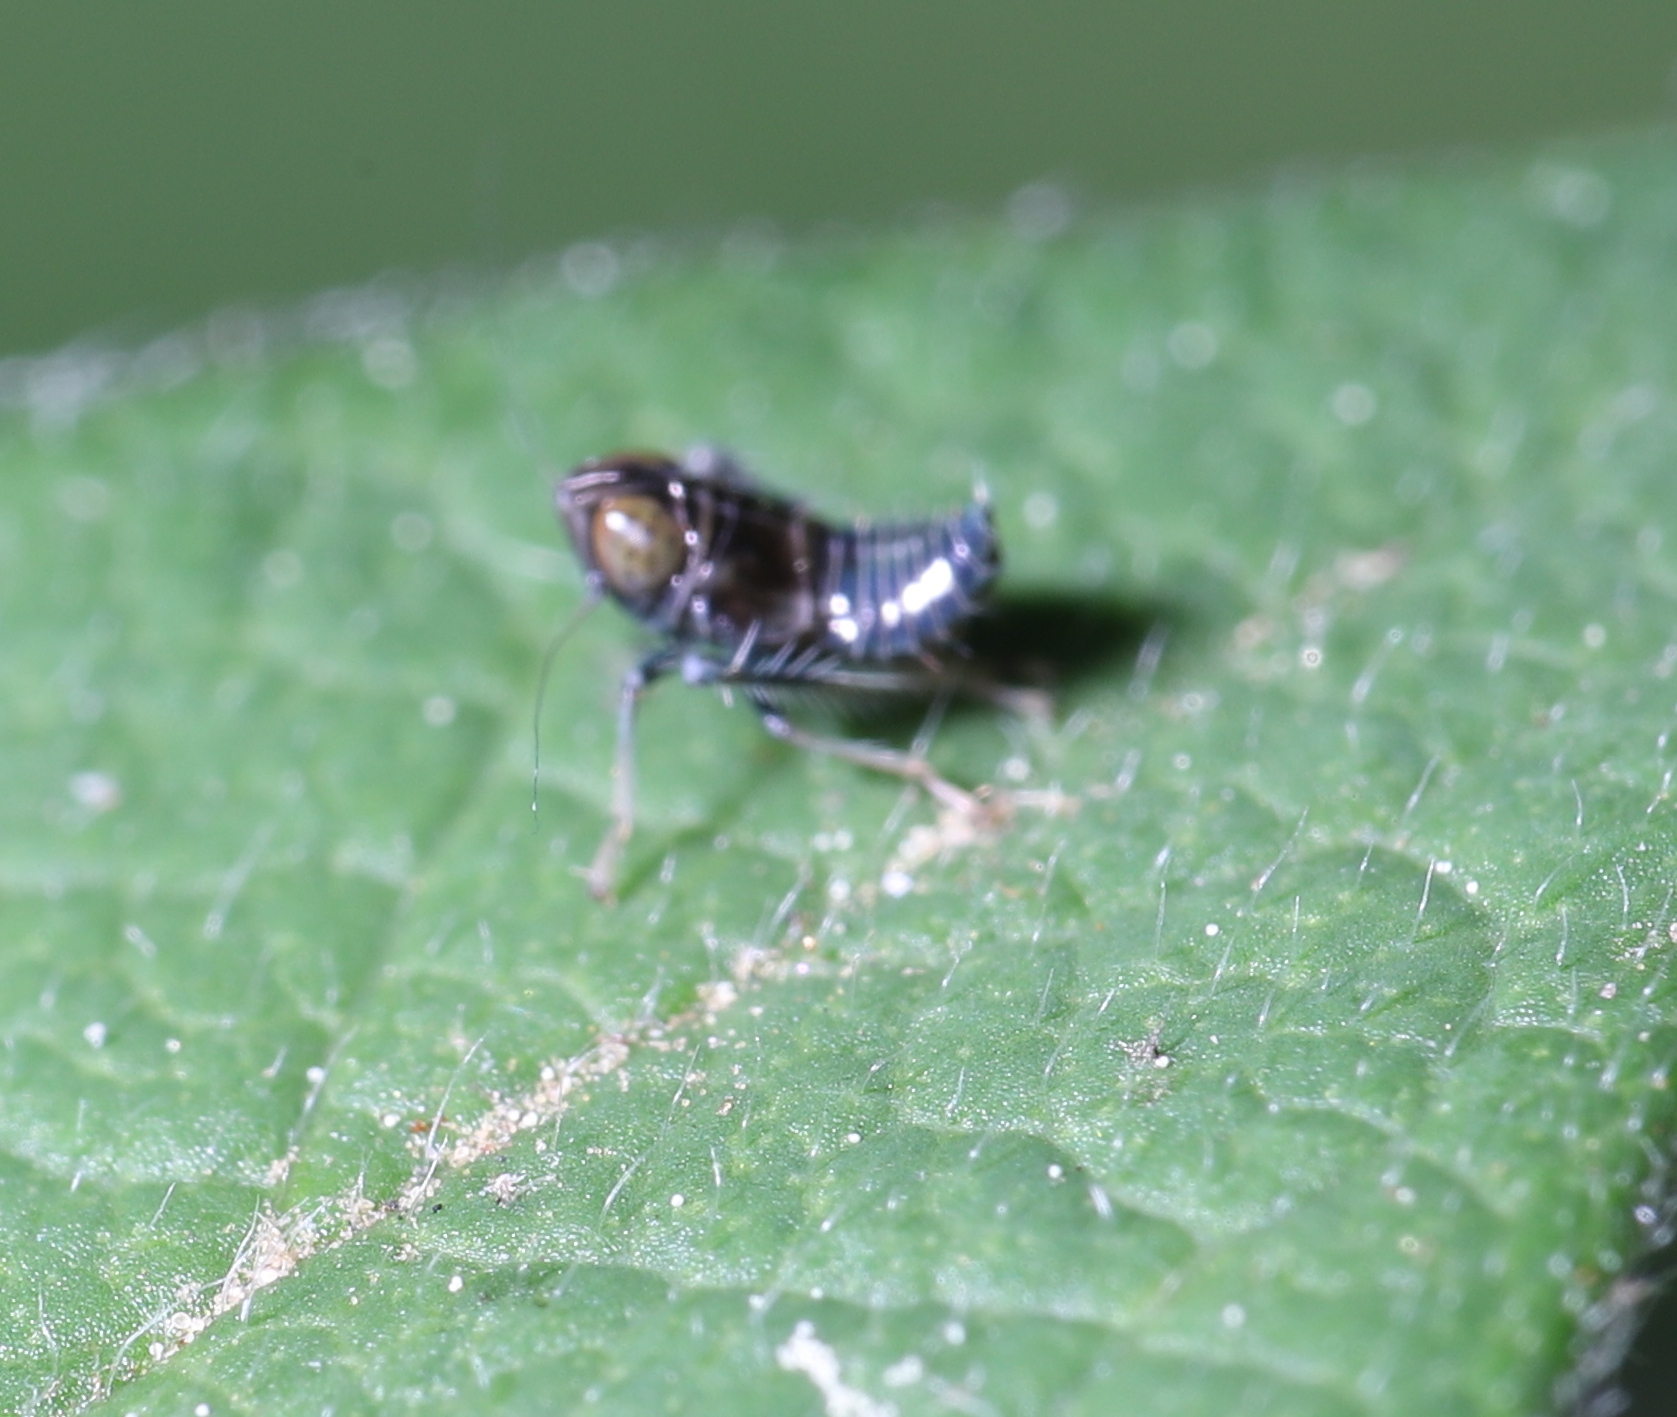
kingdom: Animalia
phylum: Arthropoda
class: Insecta
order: Hemiptera
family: Cicadellidae
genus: Jikradia
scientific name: Jikradia olitoria
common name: Coppery leafhopper
